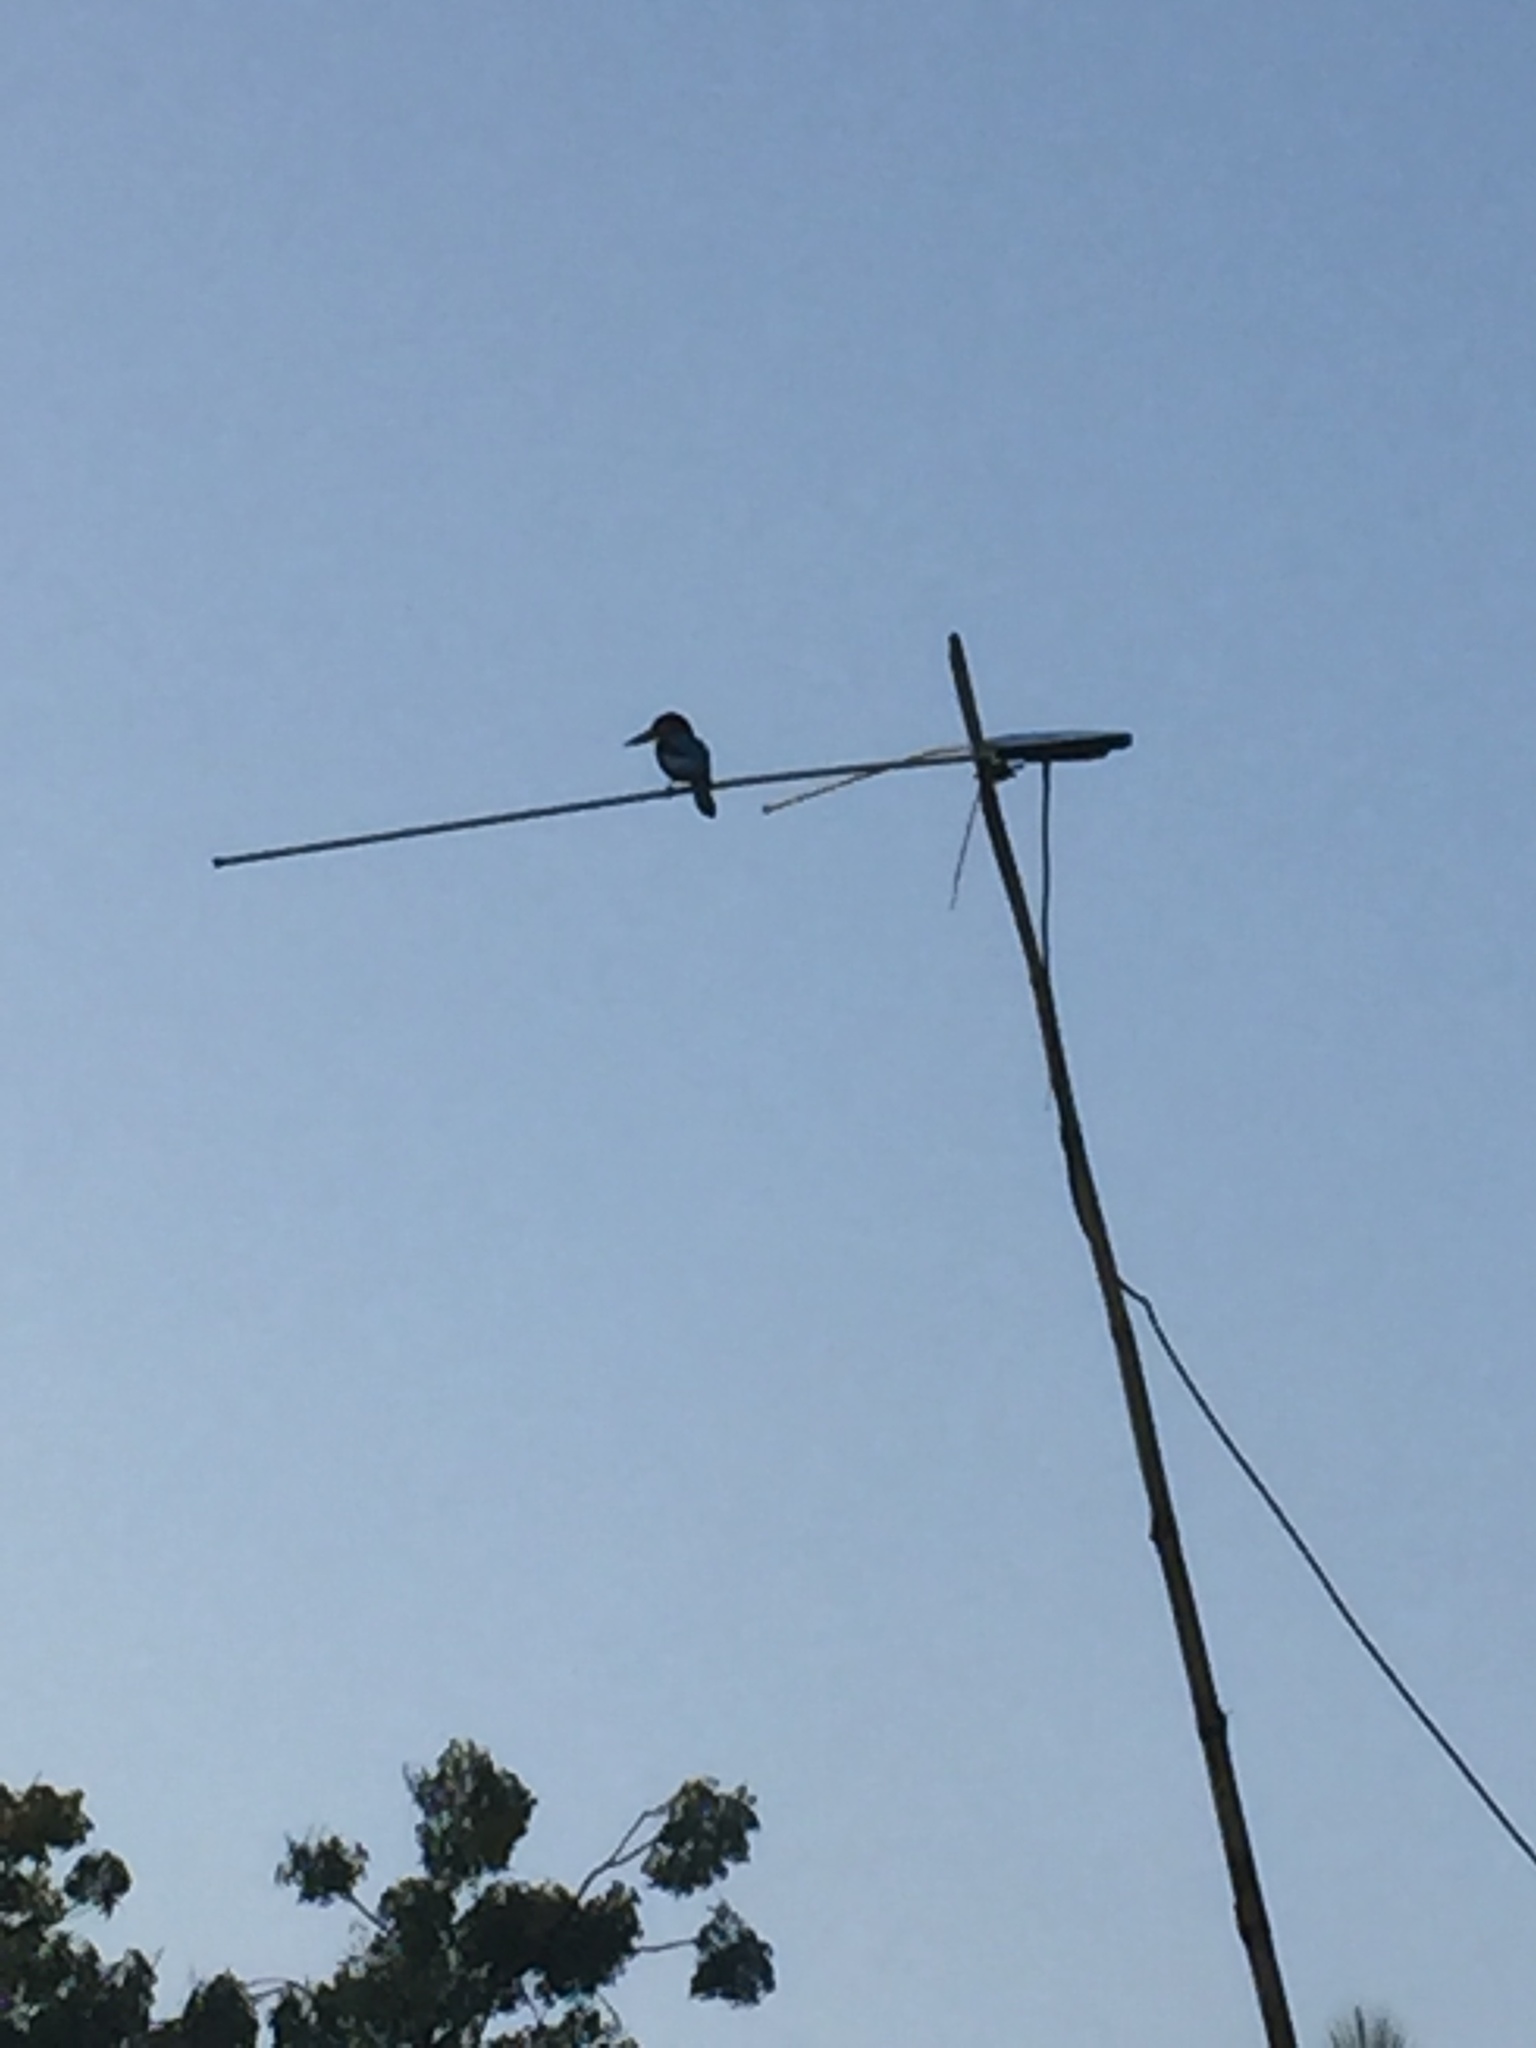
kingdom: Animalia
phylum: Chordata
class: Aves
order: Coraciiformes
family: Alcedinidae
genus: Halcyon
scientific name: Halcyon smyrnensis
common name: White-throated kingfisher
